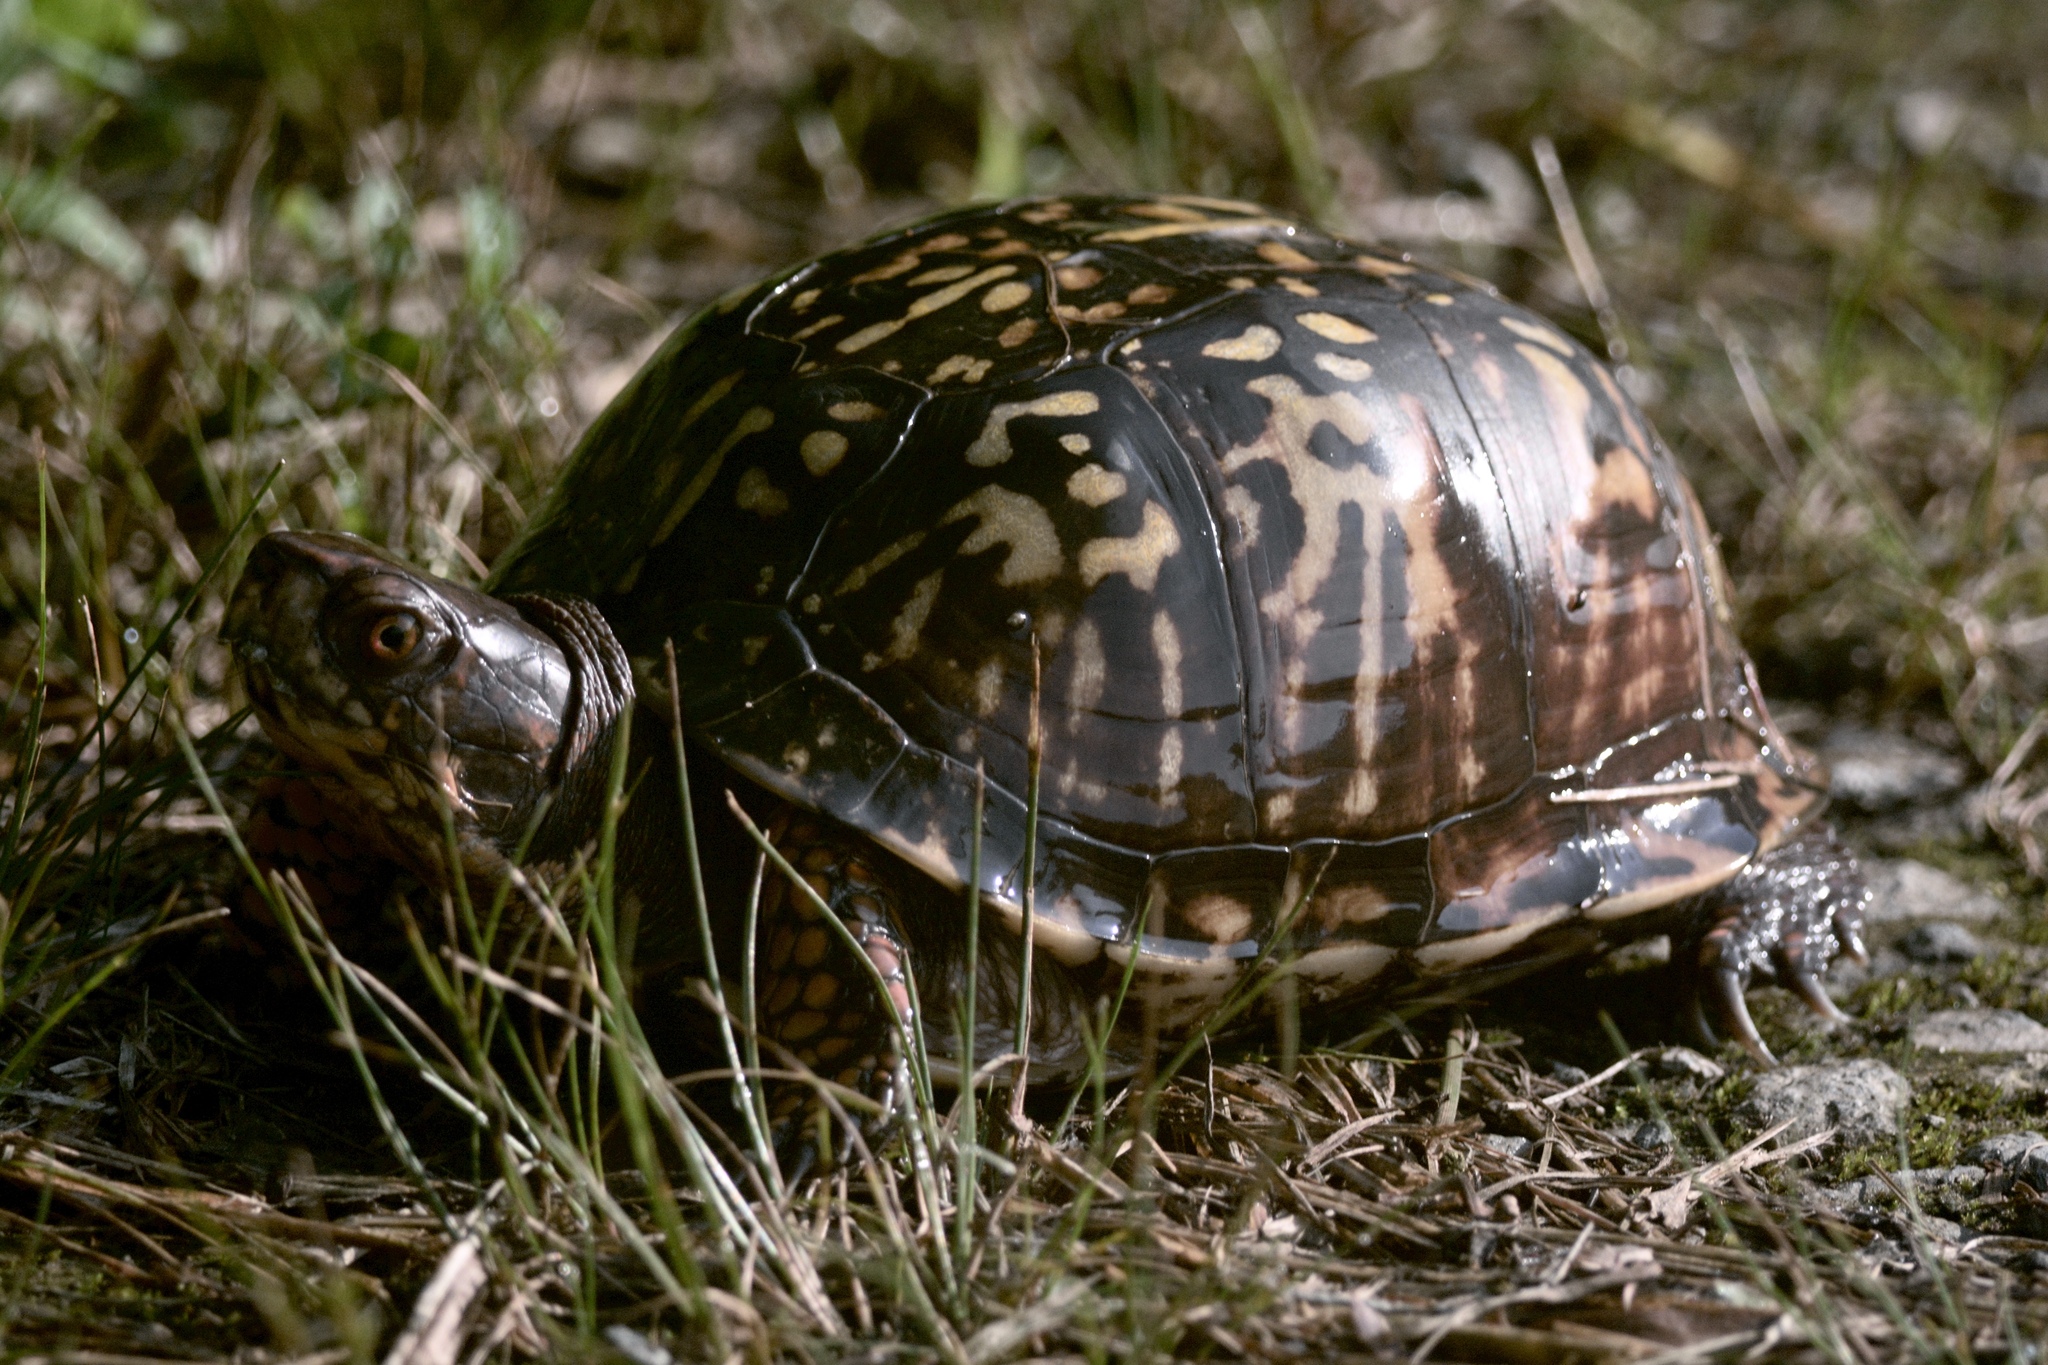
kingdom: Animalia
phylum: Chordata
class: Testudines
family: Emydidae
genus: Terrapene
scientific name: Terrapene carolina
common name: Common box turtle
